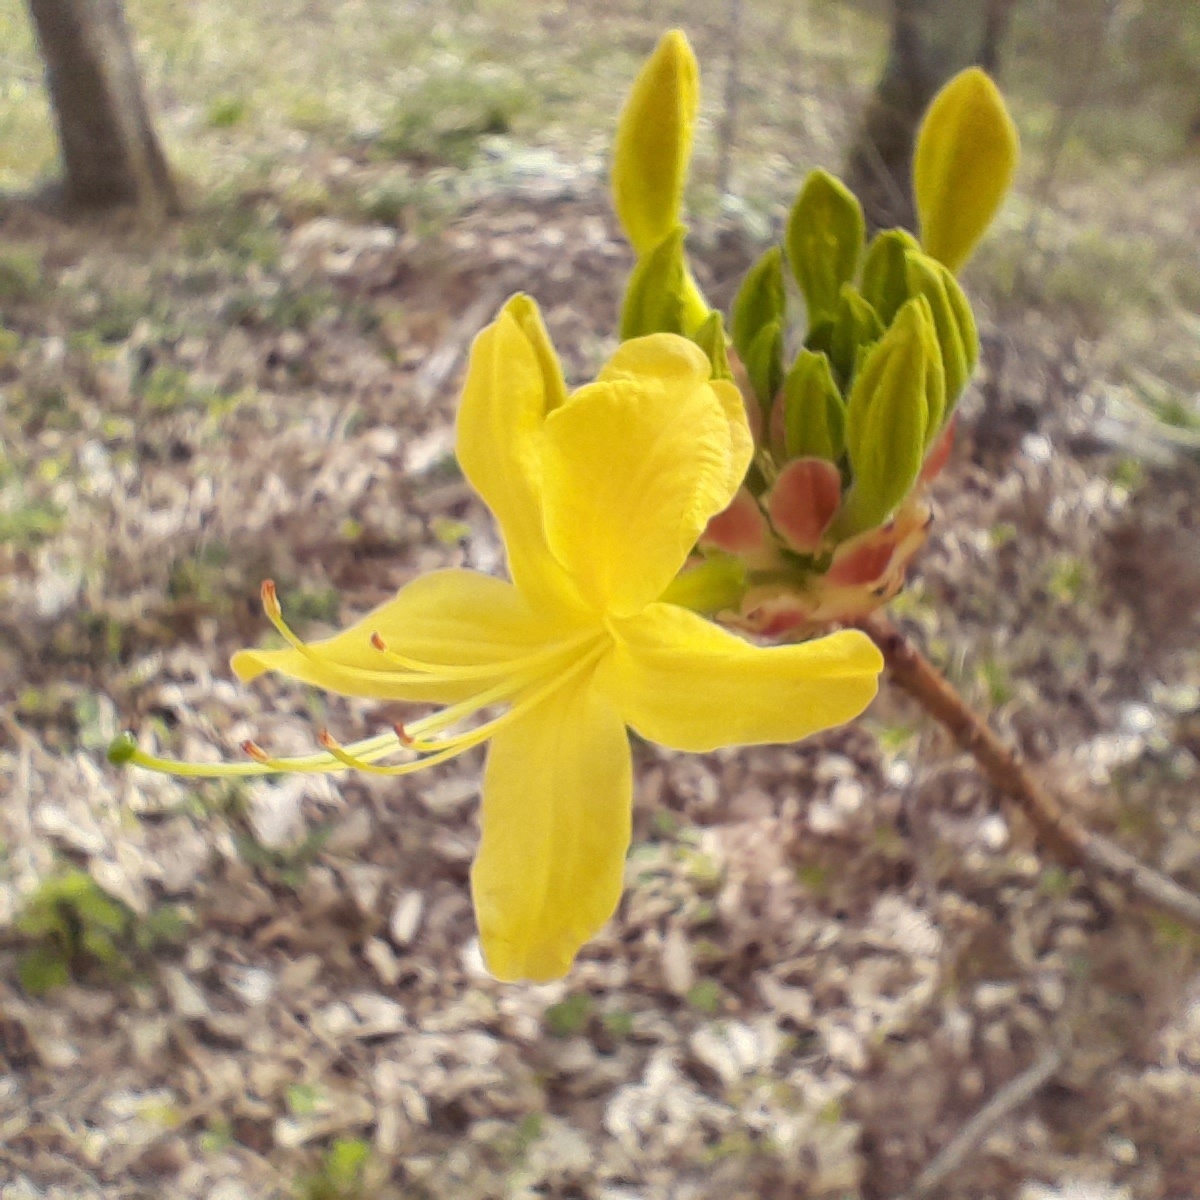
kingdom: Plantae
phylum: Tracheophyta
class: Magnoliopsida
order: Ericales
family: Ericaceae
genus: Rhododendron
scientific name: Rhododendron luteum
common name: Yellow azalea
